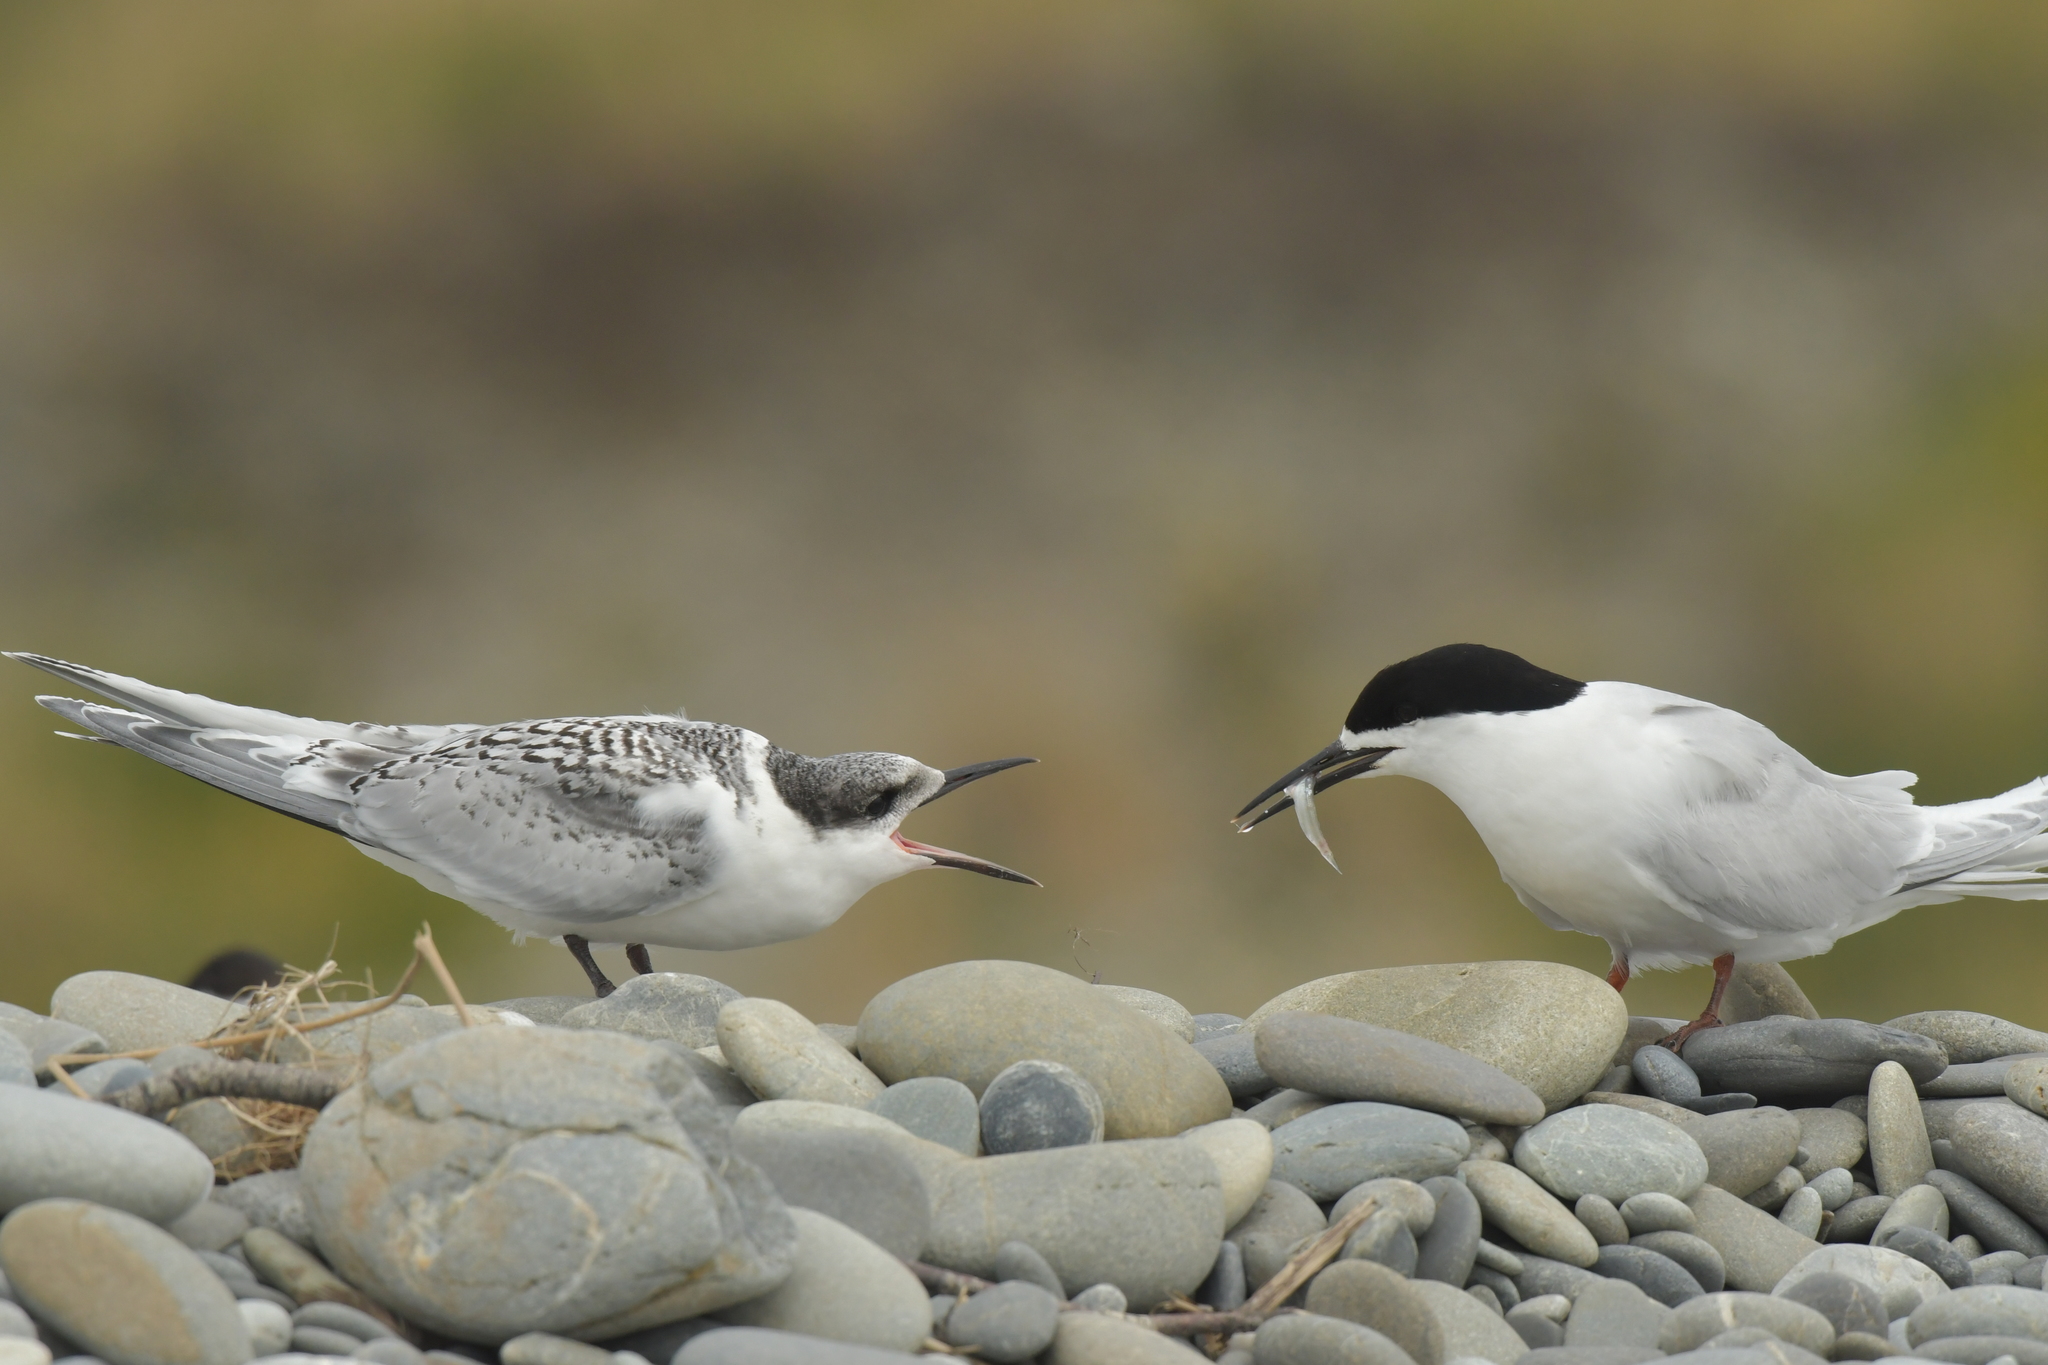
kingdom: Animalia
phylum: Chordata
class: Aves
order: Charadriiformes
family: Laridae
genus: Sterna
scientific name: Sterna striata
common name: White-fronted tern
